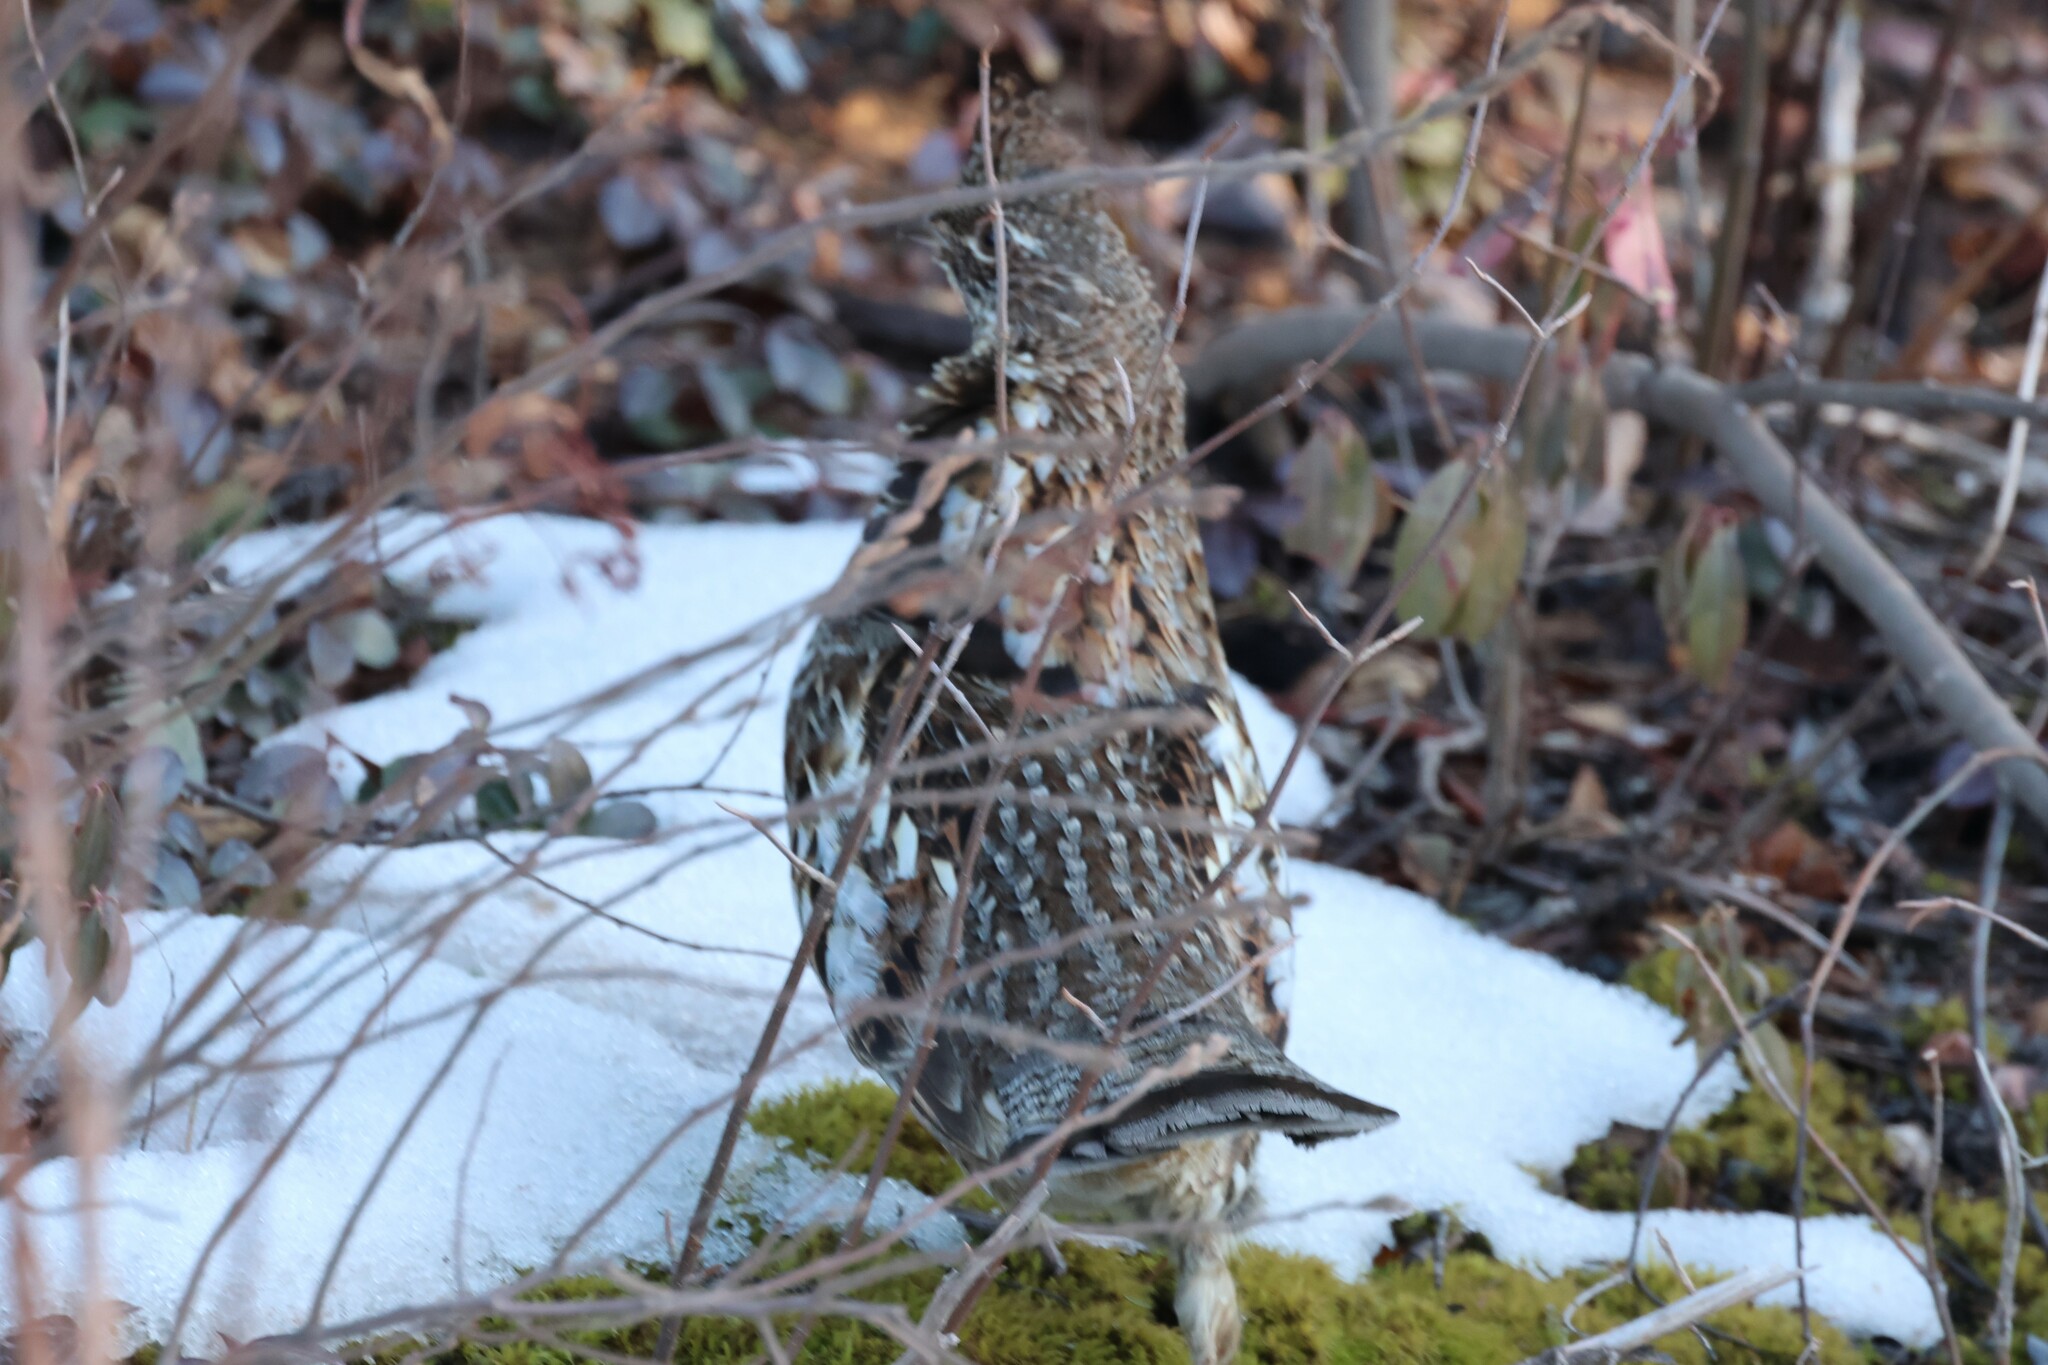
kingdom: Animalia
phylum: Chordata
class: Aves
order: Galliformes
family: Phasianidae
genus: Bonasa
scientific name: Bonasa umbellus
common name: Ruffed grouse
